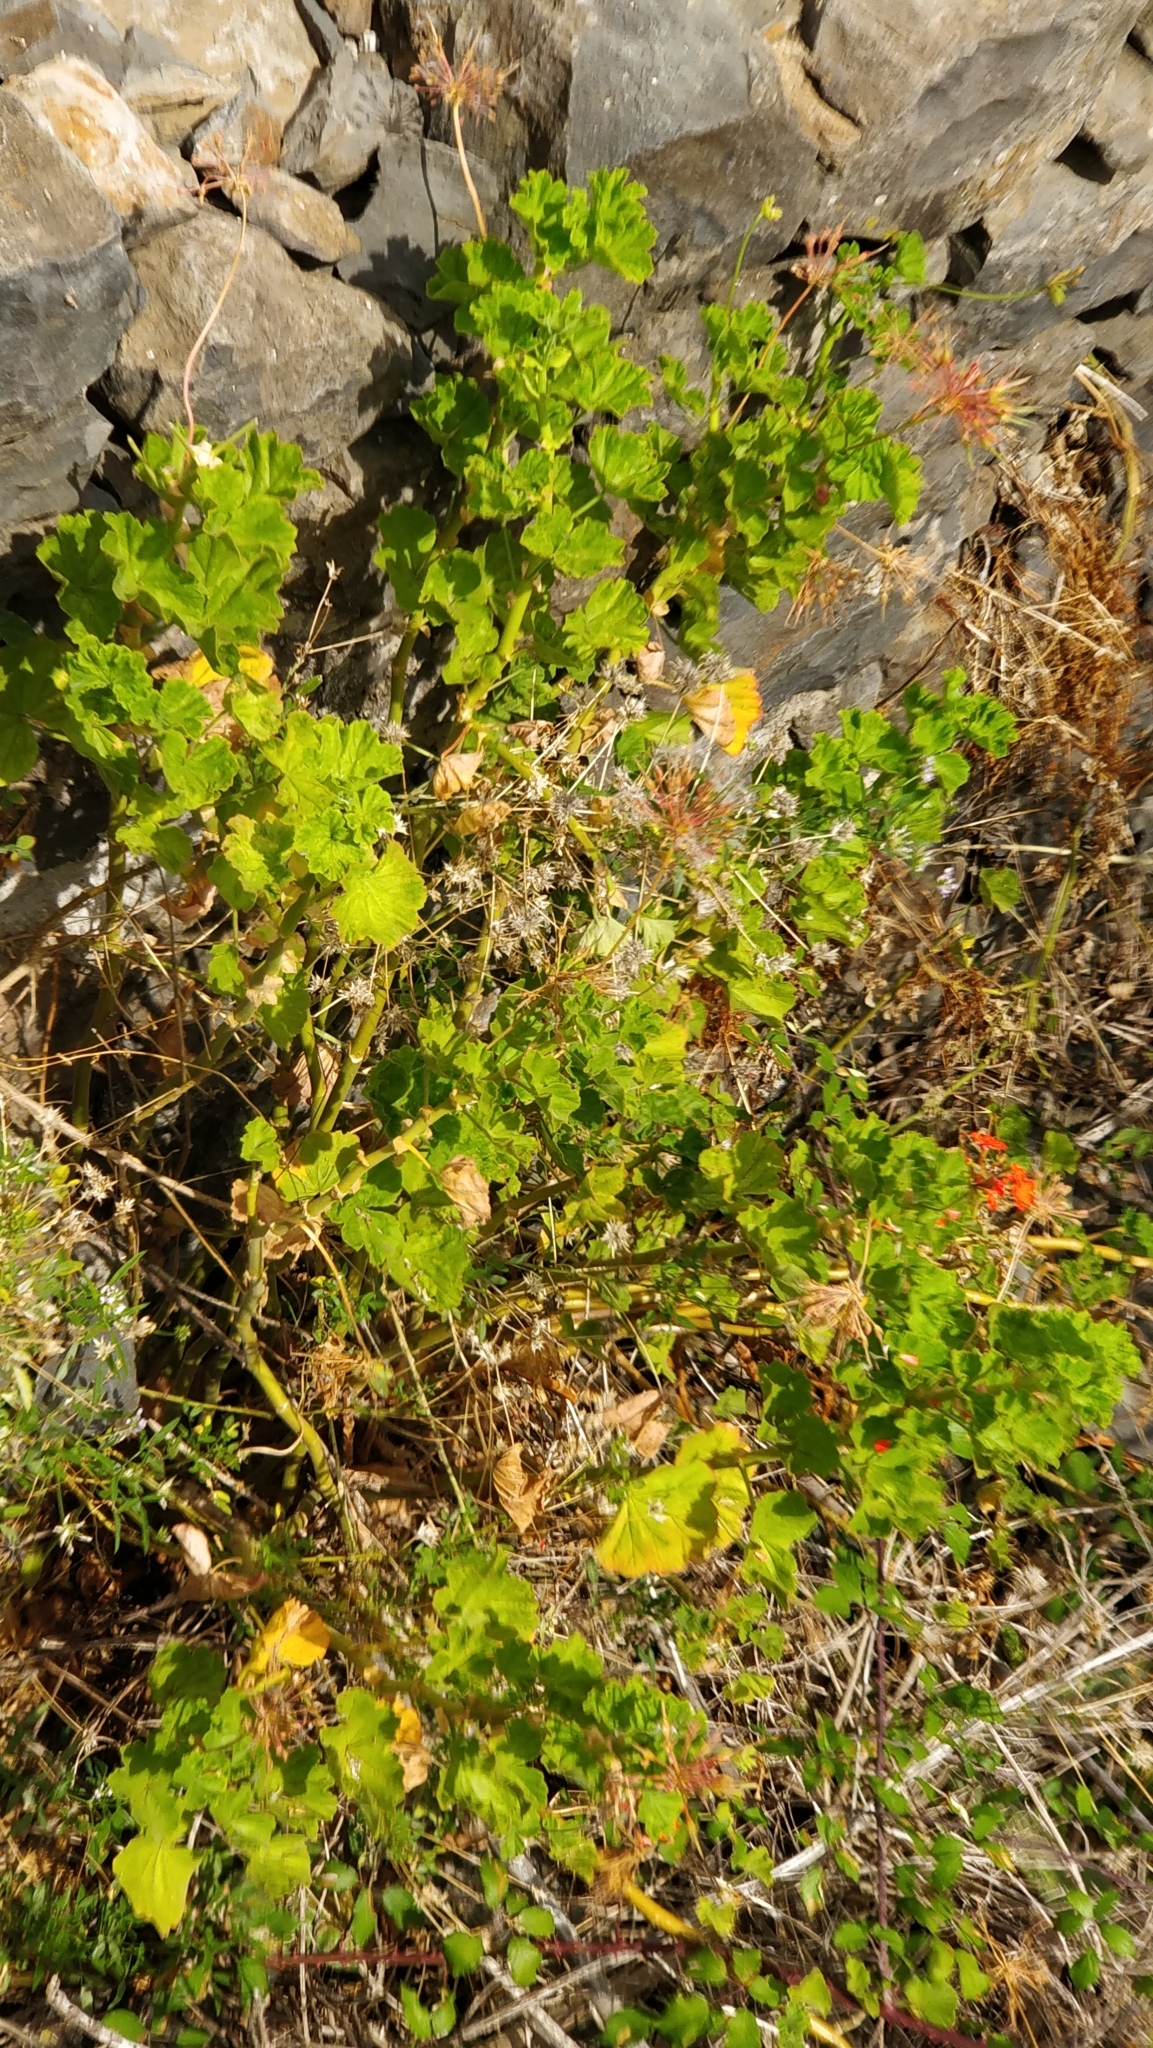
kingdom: Plantae
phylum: Tracheophyta
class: Magnoliopsida
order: Geraniales
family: Geraniaceae
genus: Pelargonium
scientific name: Pelargonium hybridum
